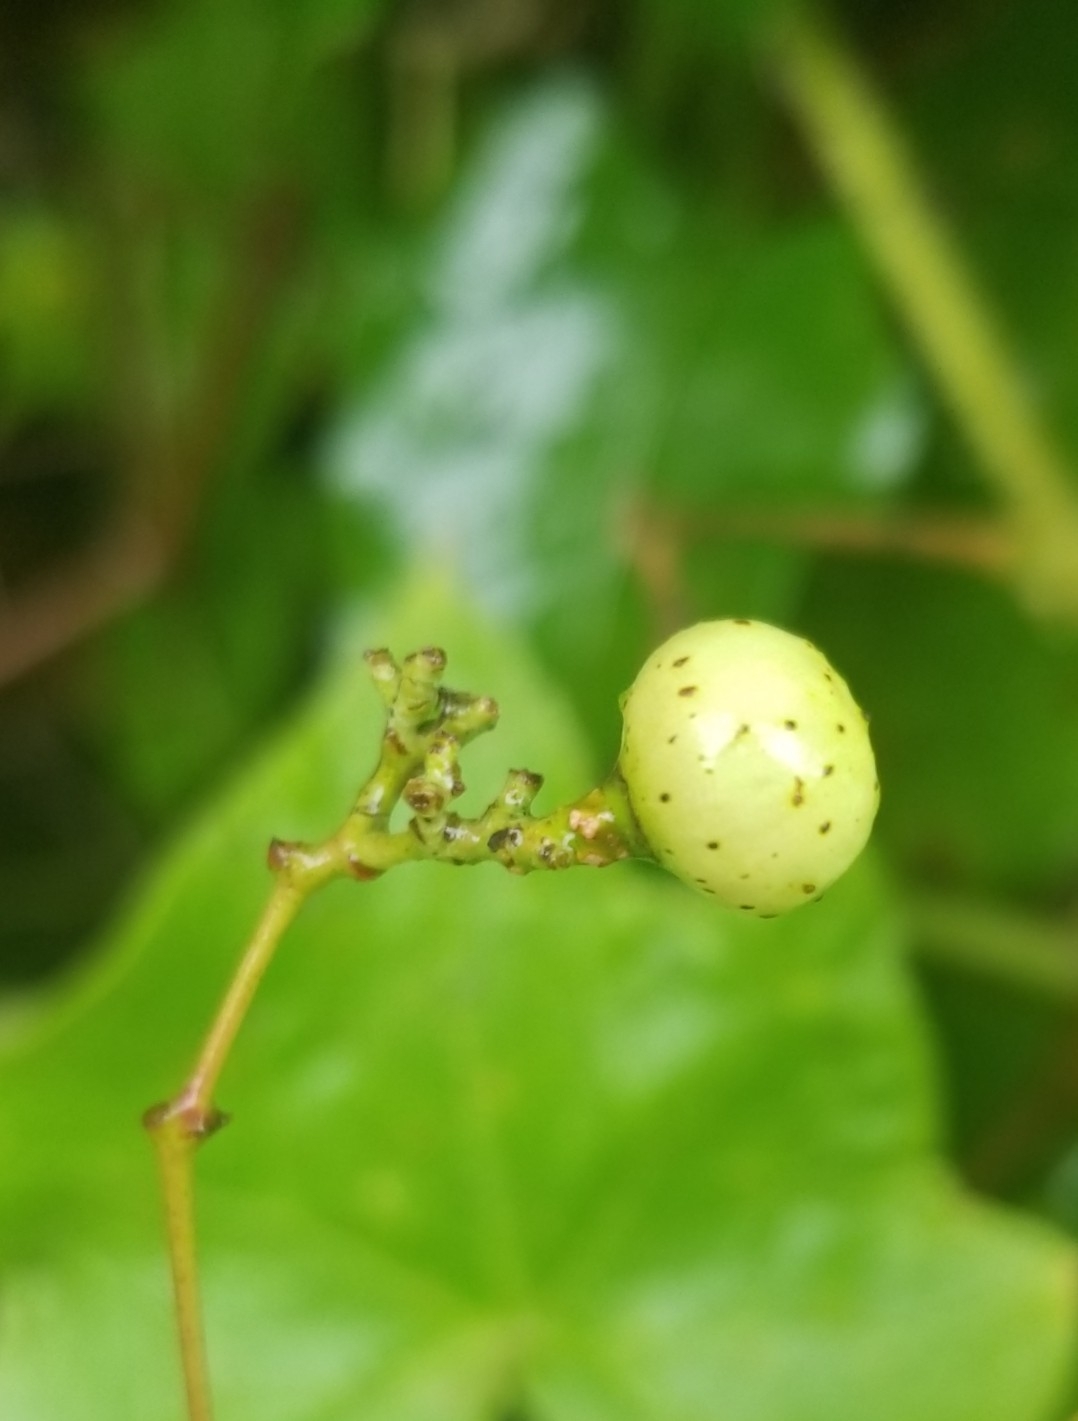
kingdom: Plantae
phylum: Tracheophyta
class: Magnoliopsida
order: Vitales
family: Vitaceae
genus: Nekemias
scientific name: Nekemias arborea
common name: Peppervine
